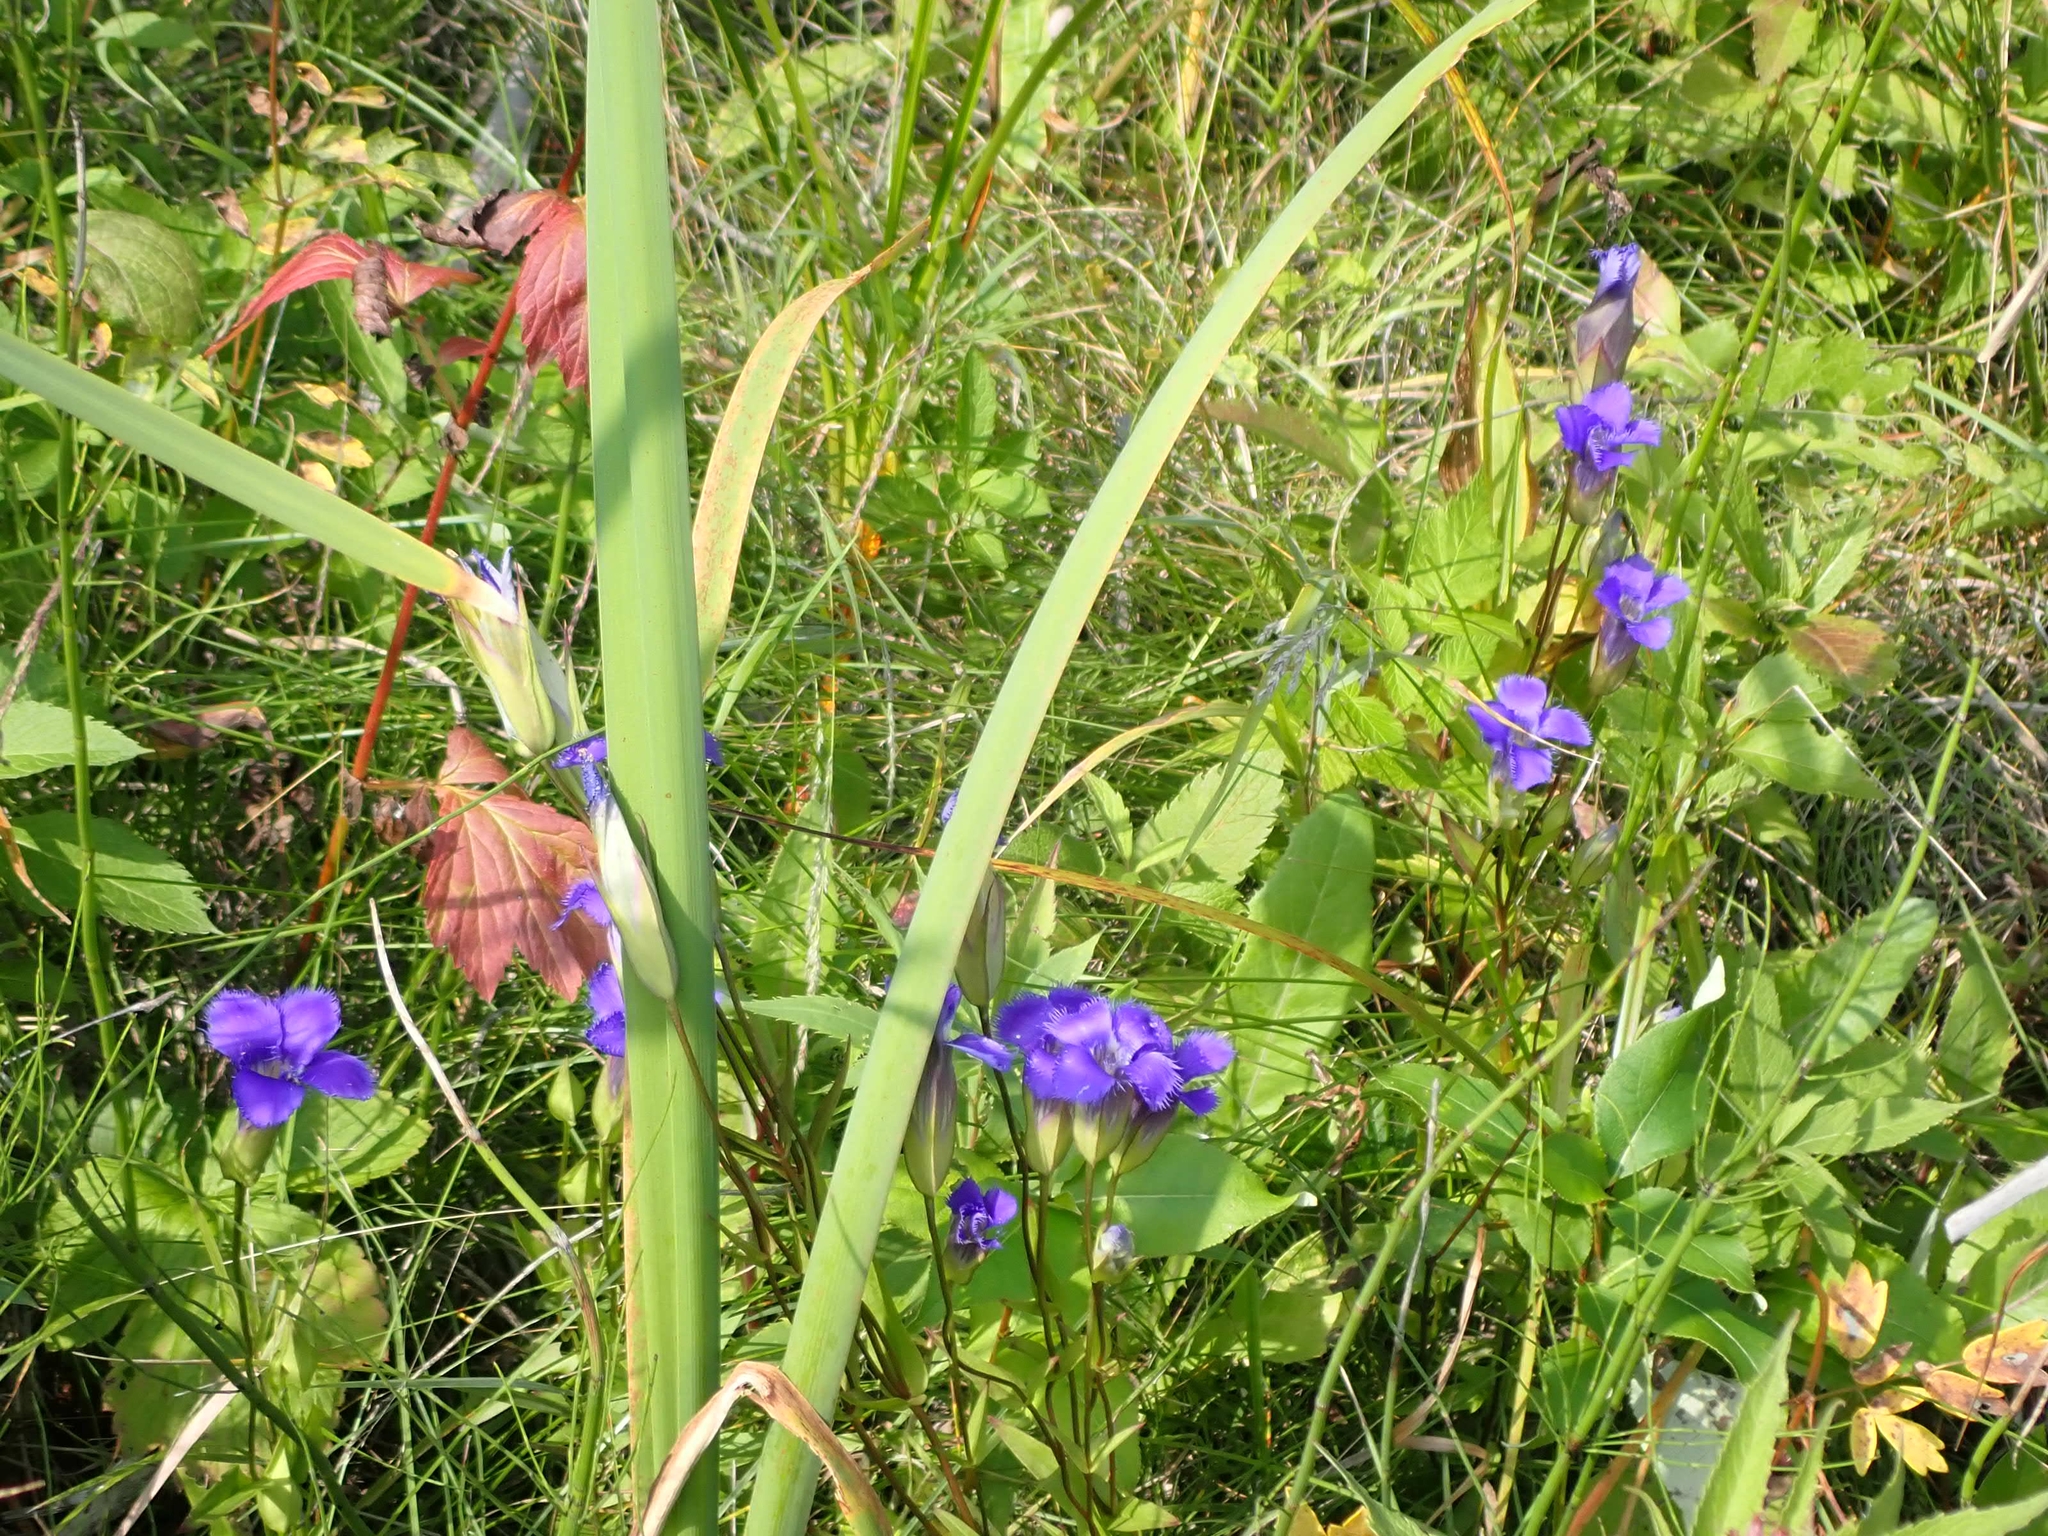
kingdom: Plantae
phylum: Tracheophyta
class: Magnoliopsida
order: Gentianales
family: Gentianaceae
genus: Gentianopsis
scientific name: Gentianopsis crinita
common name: Fringed-gentian
